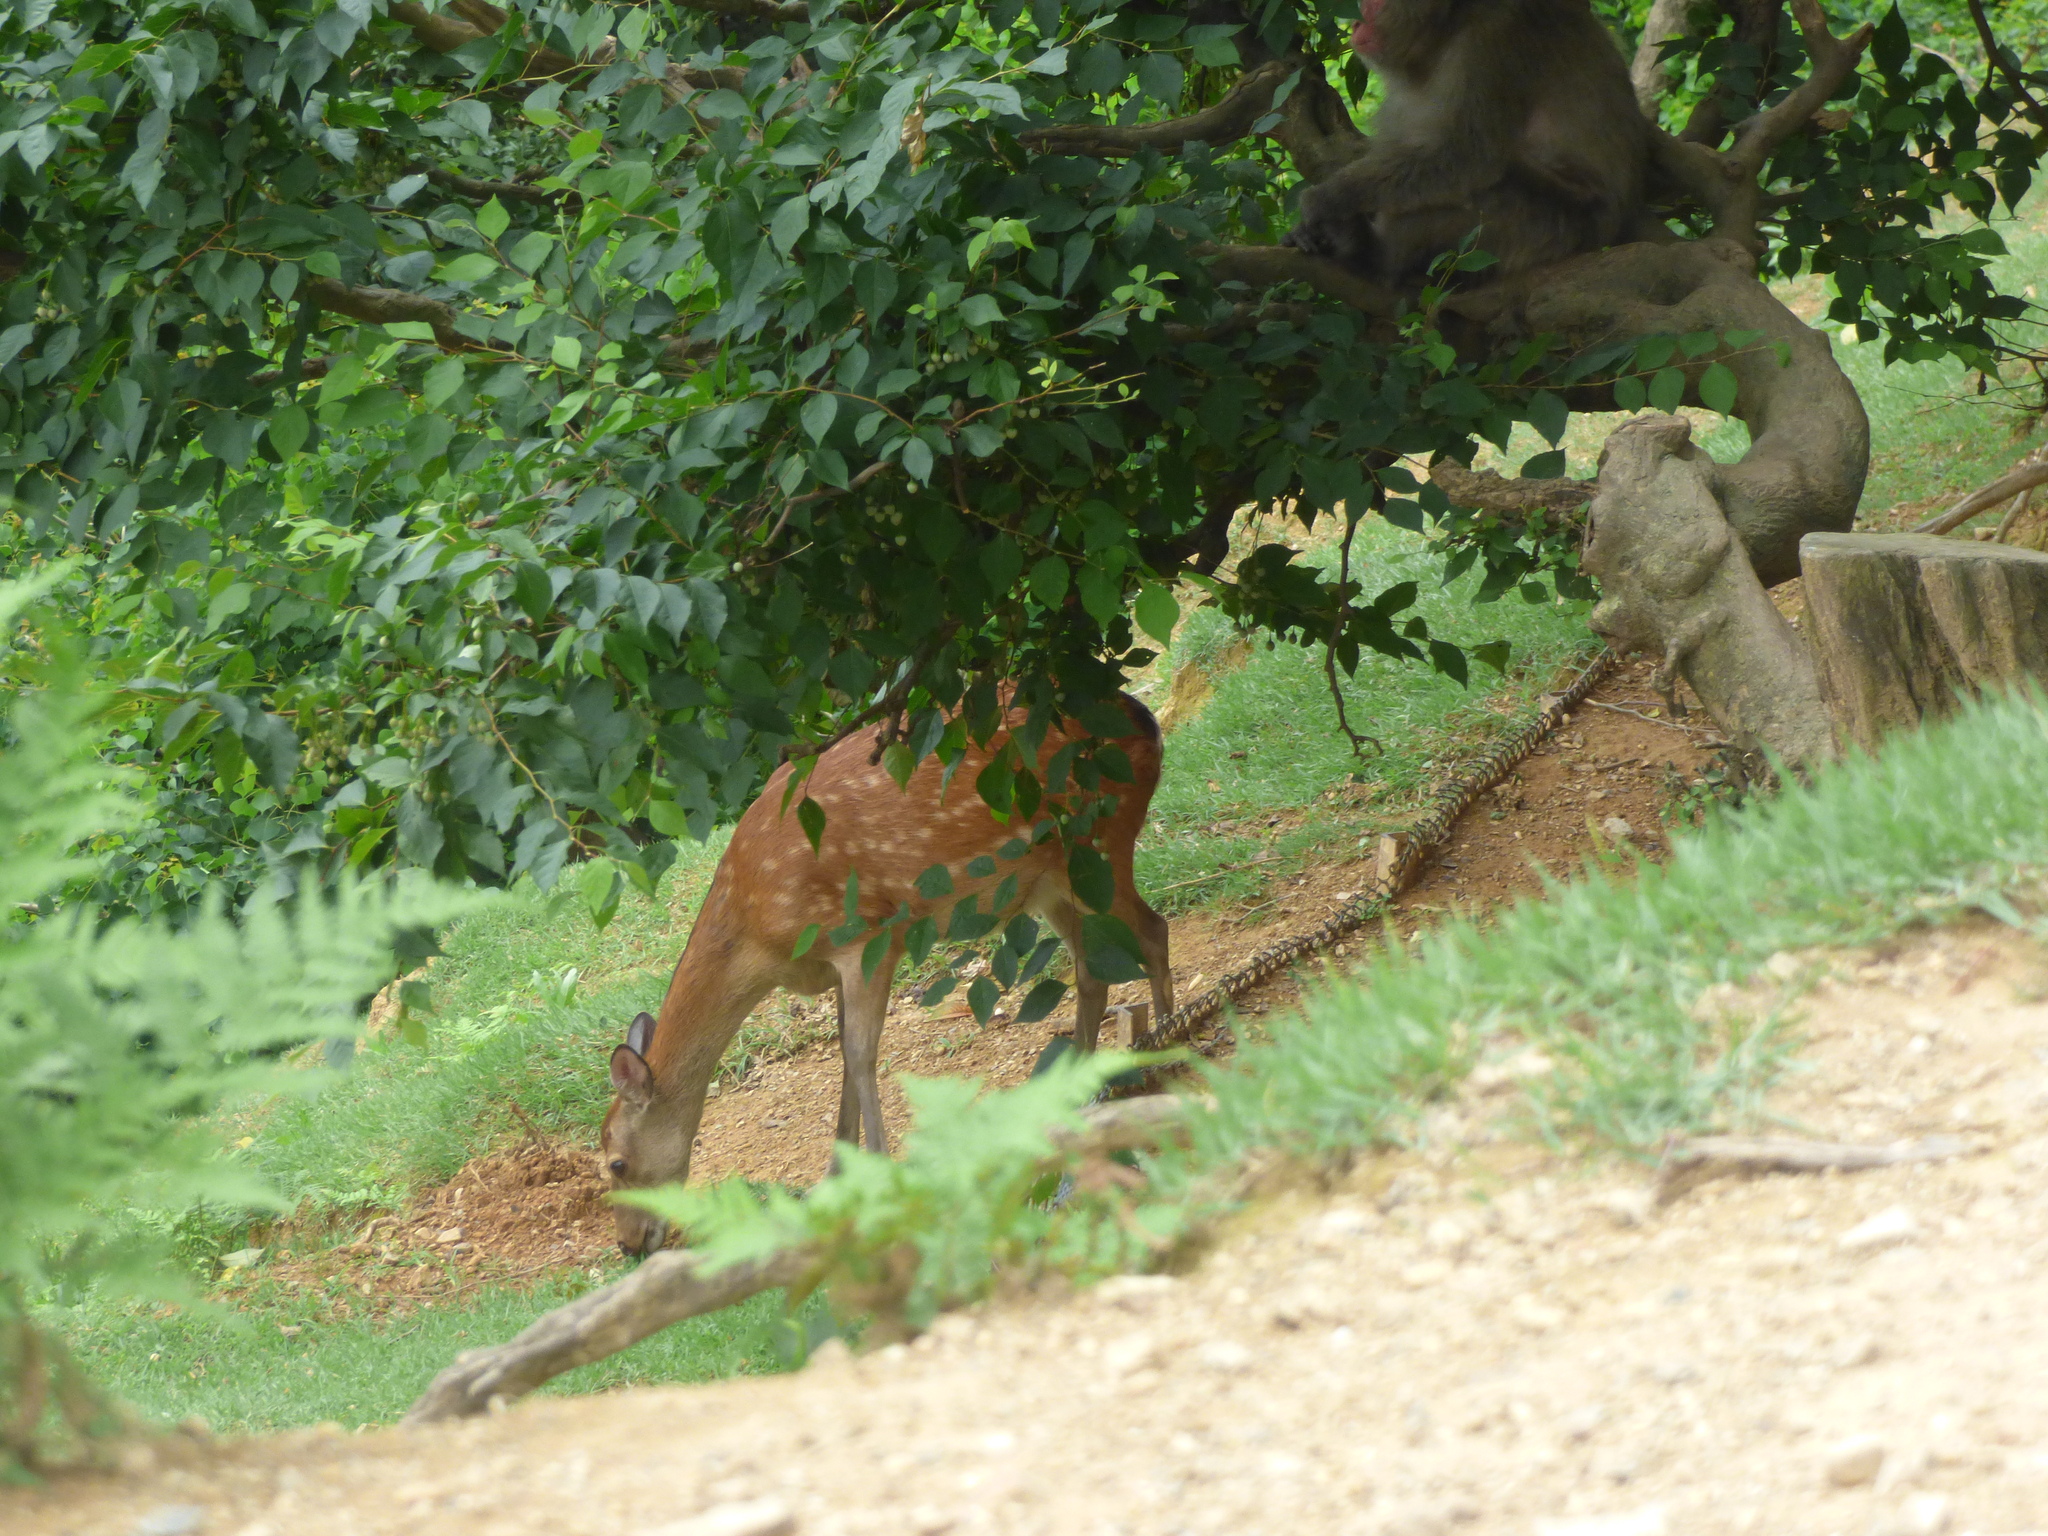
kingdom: Animalia
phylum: Chordata
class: Mammalia
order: Artiodactyla
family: Cervidae
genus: Cervus
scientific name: Cervus nippon
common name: Sika deer
